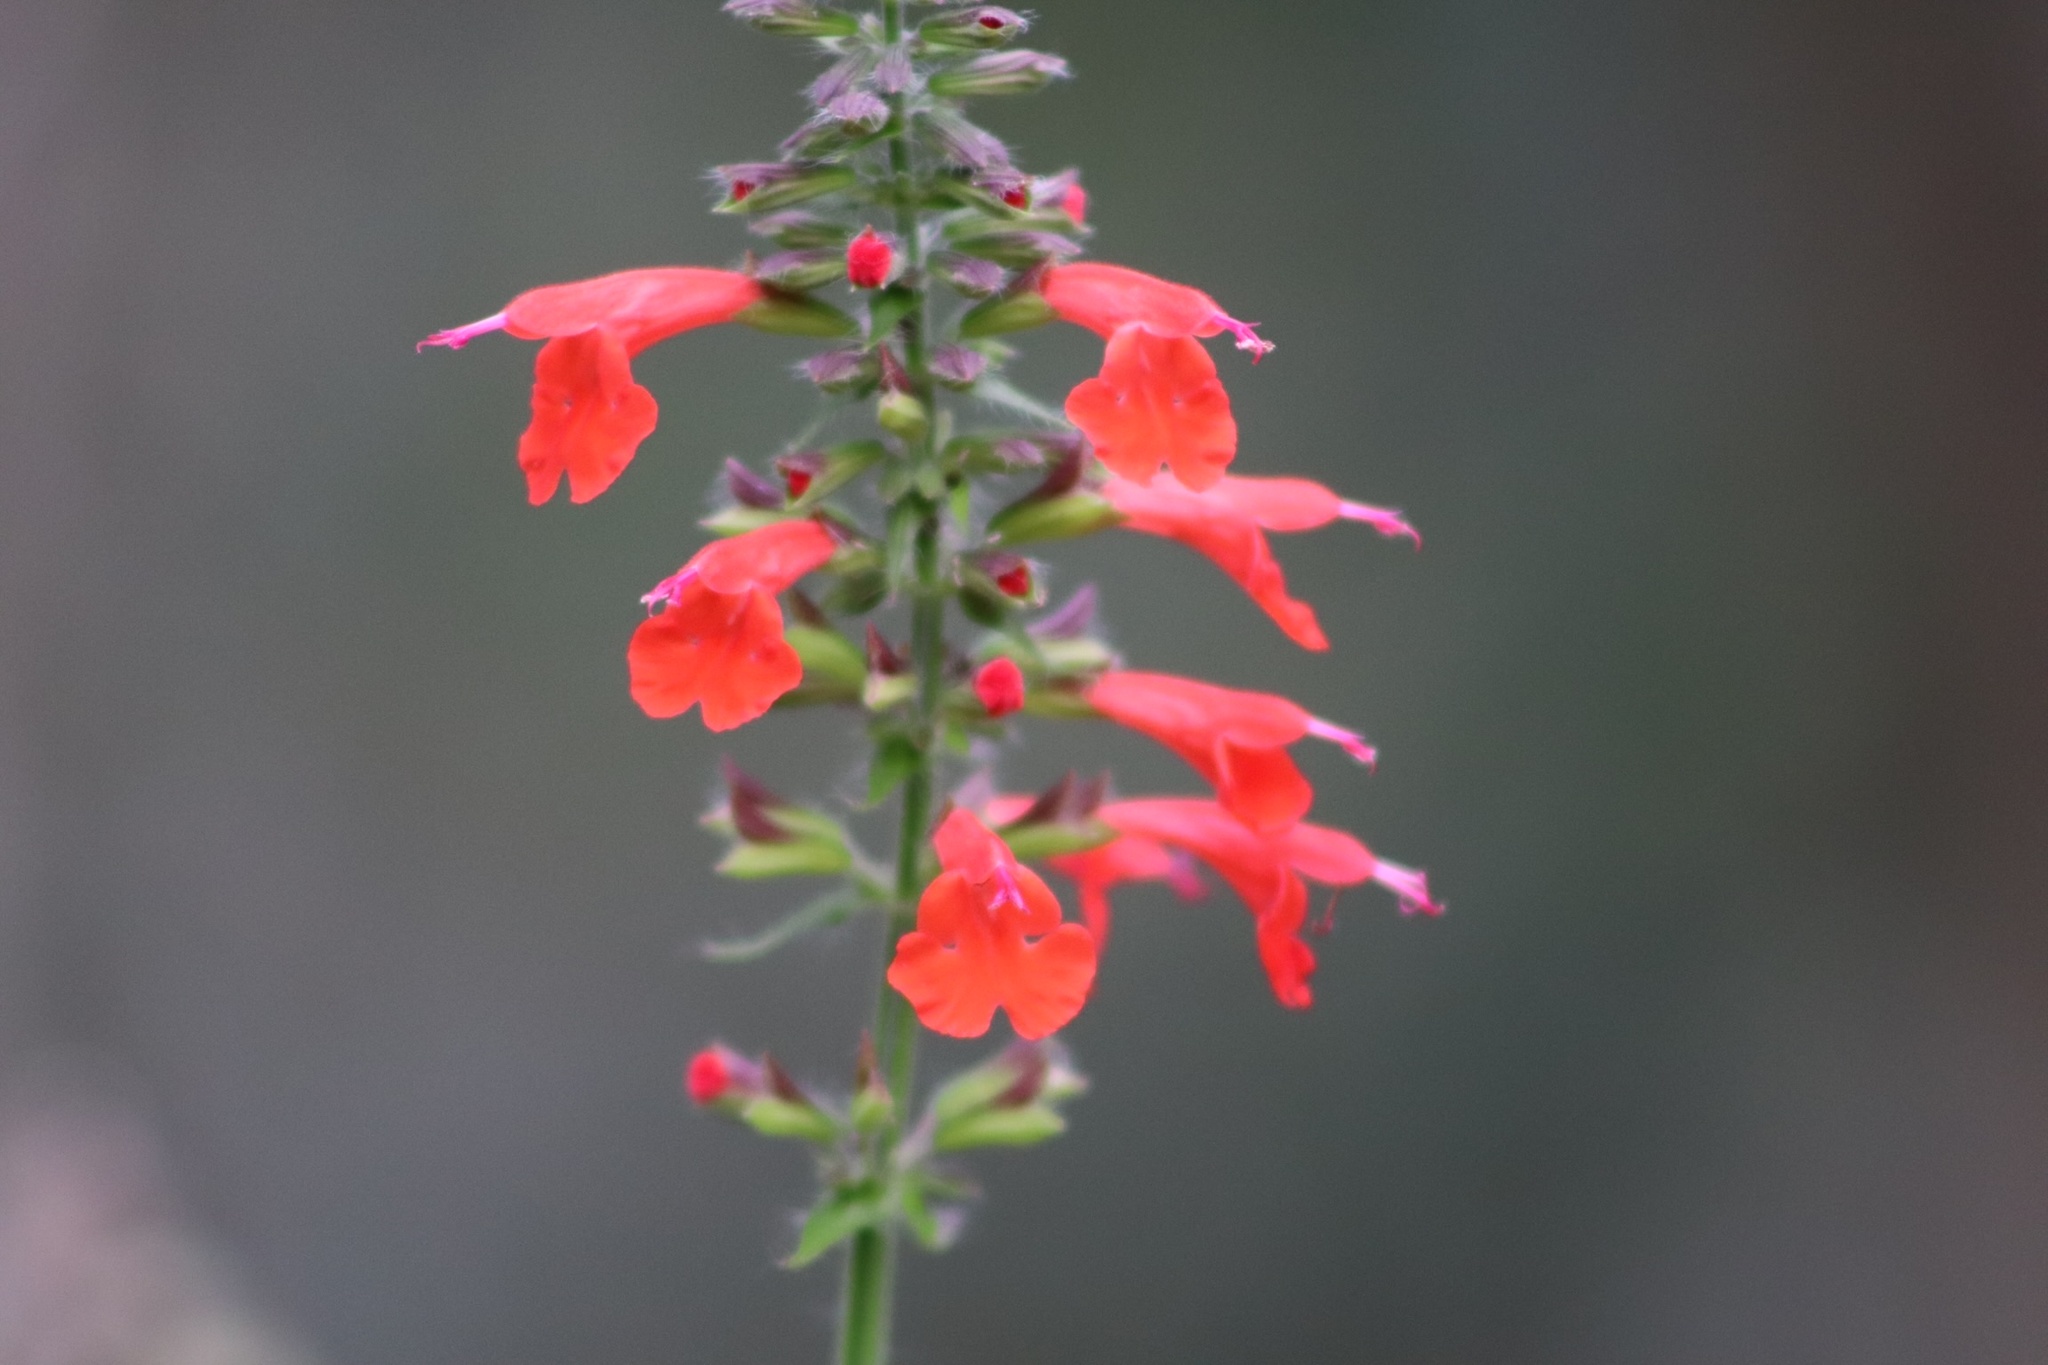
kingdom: Plantae
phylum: Tracheophyta
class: Magnoliopsida
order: Lamiales
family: Lamiaceae
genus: Salvia
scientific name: Salvia coccinea
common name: Blood sage
